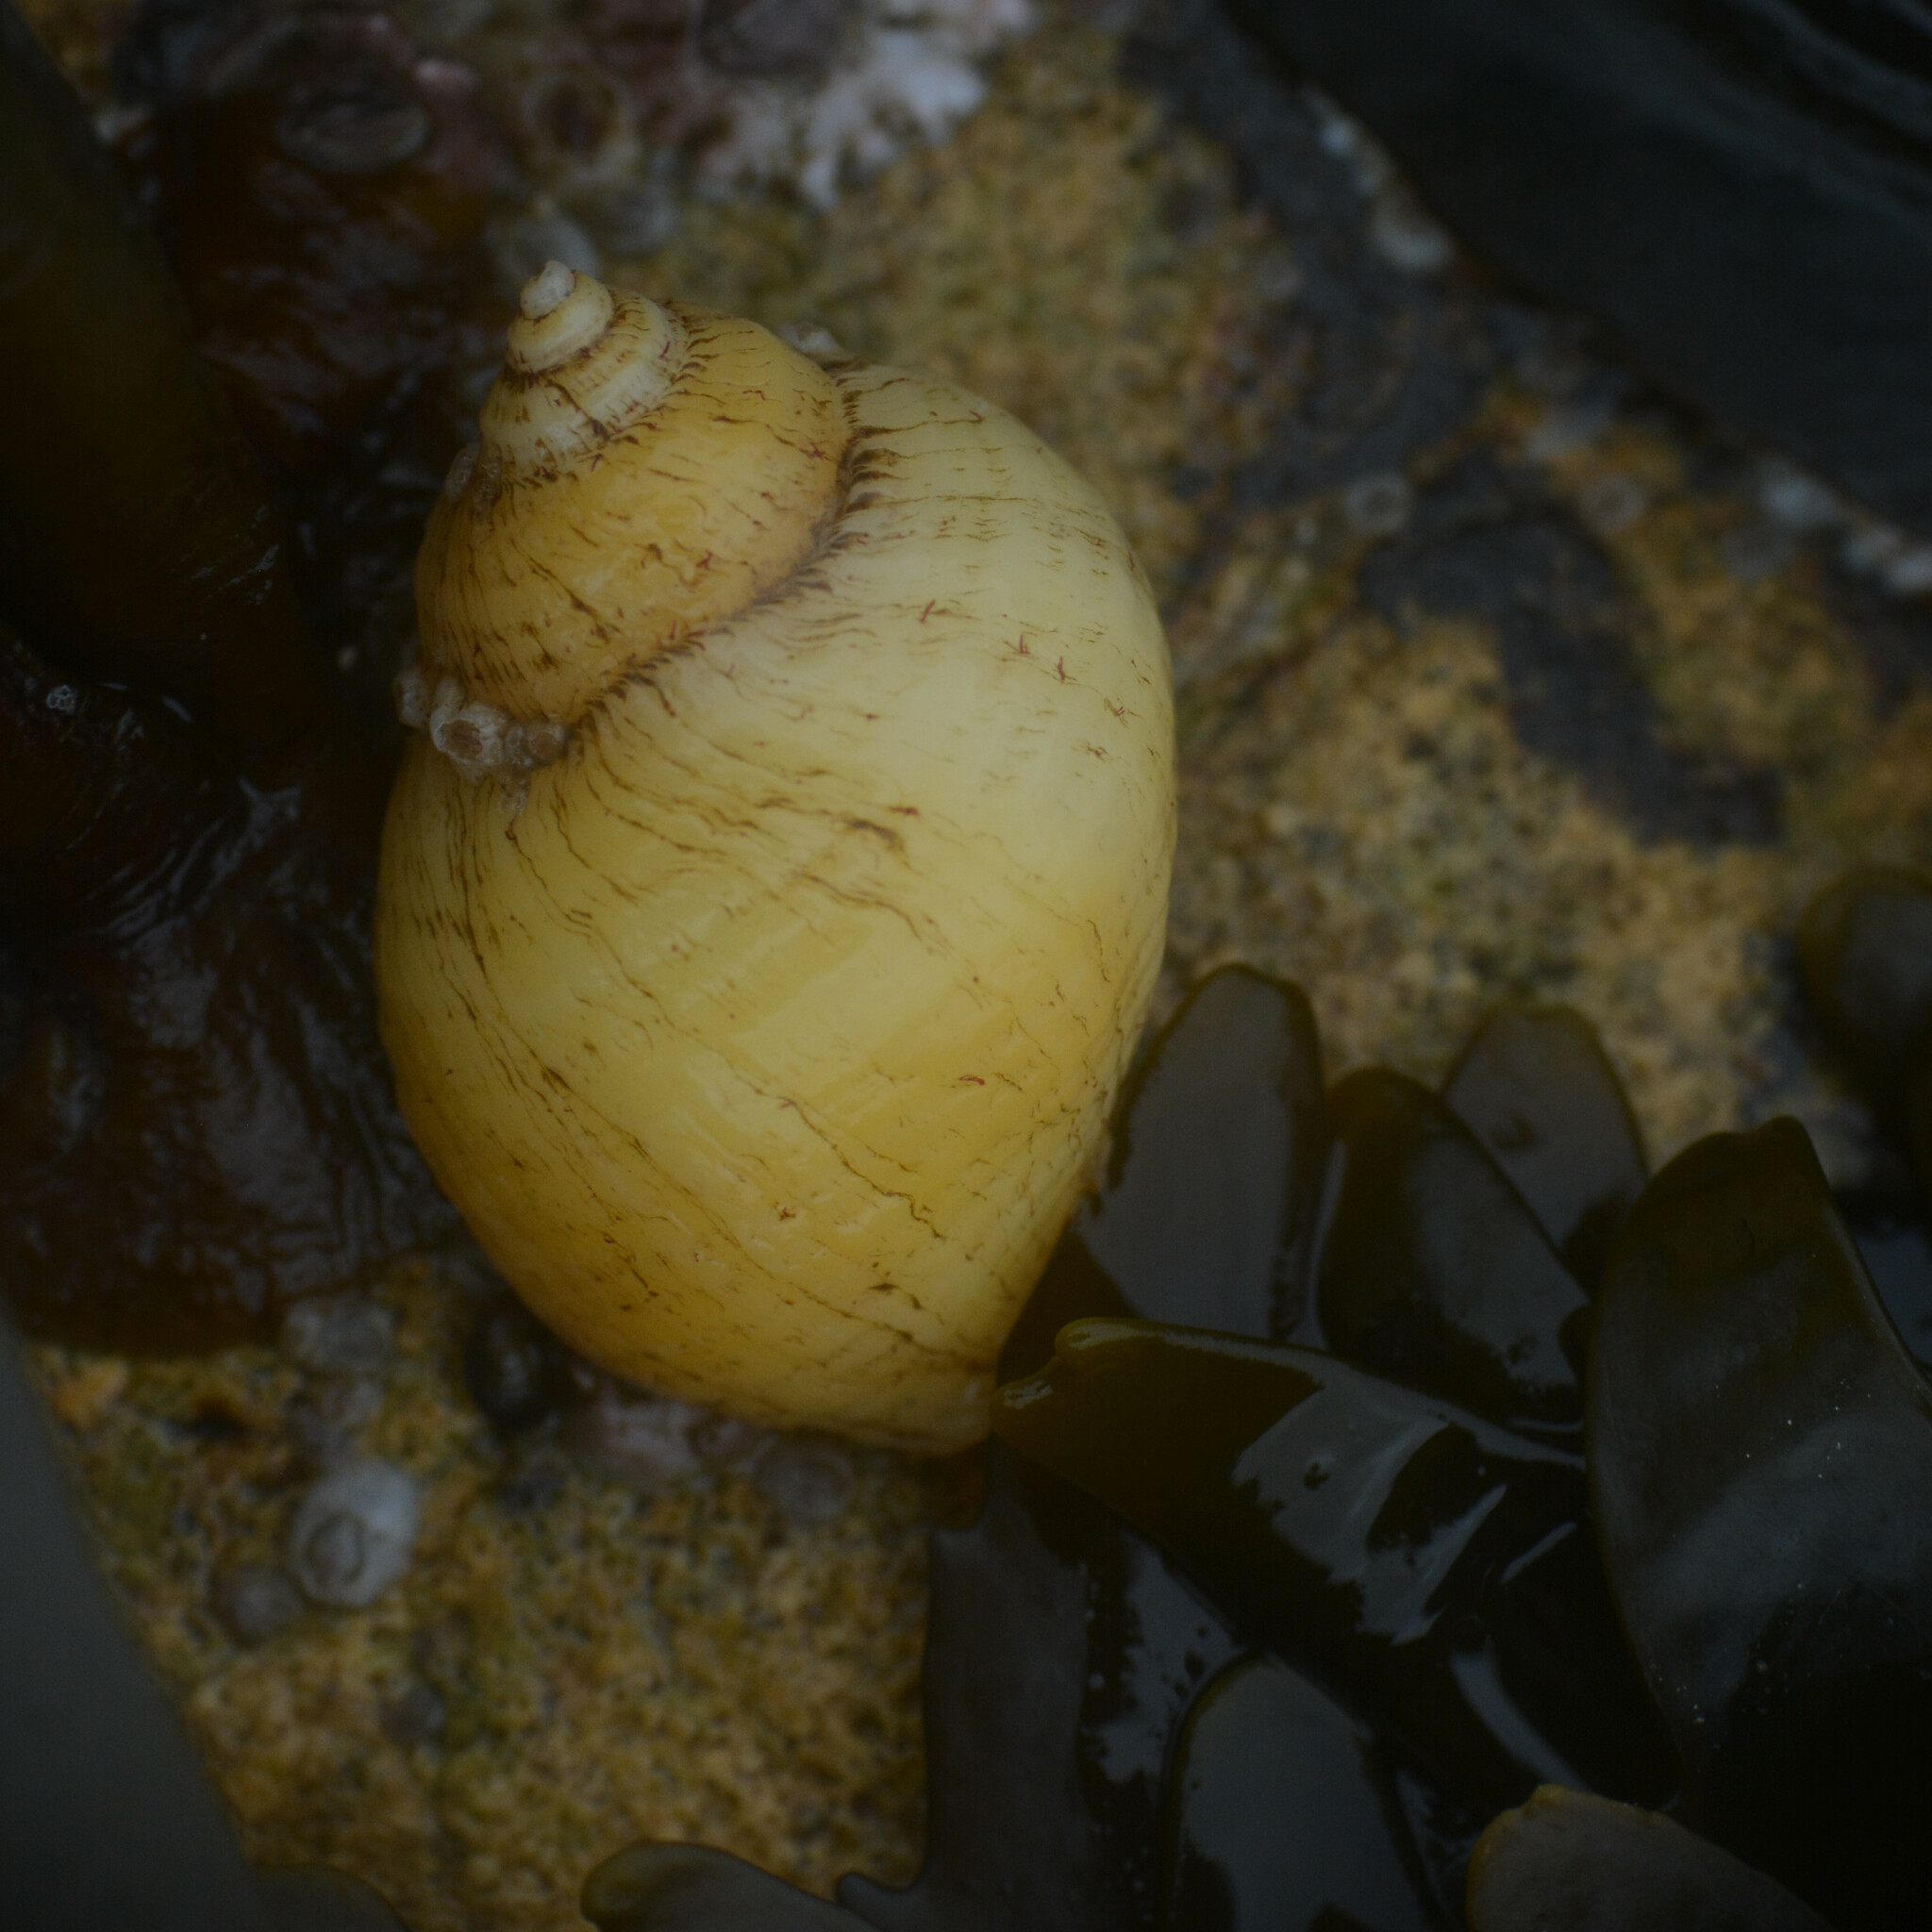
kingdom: Animalia
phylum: Mollusca
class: Gastropoda
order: Neogastropoda
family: Muricidae
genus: Nucella
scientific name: Nucella lapillus
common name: Dog whelk
